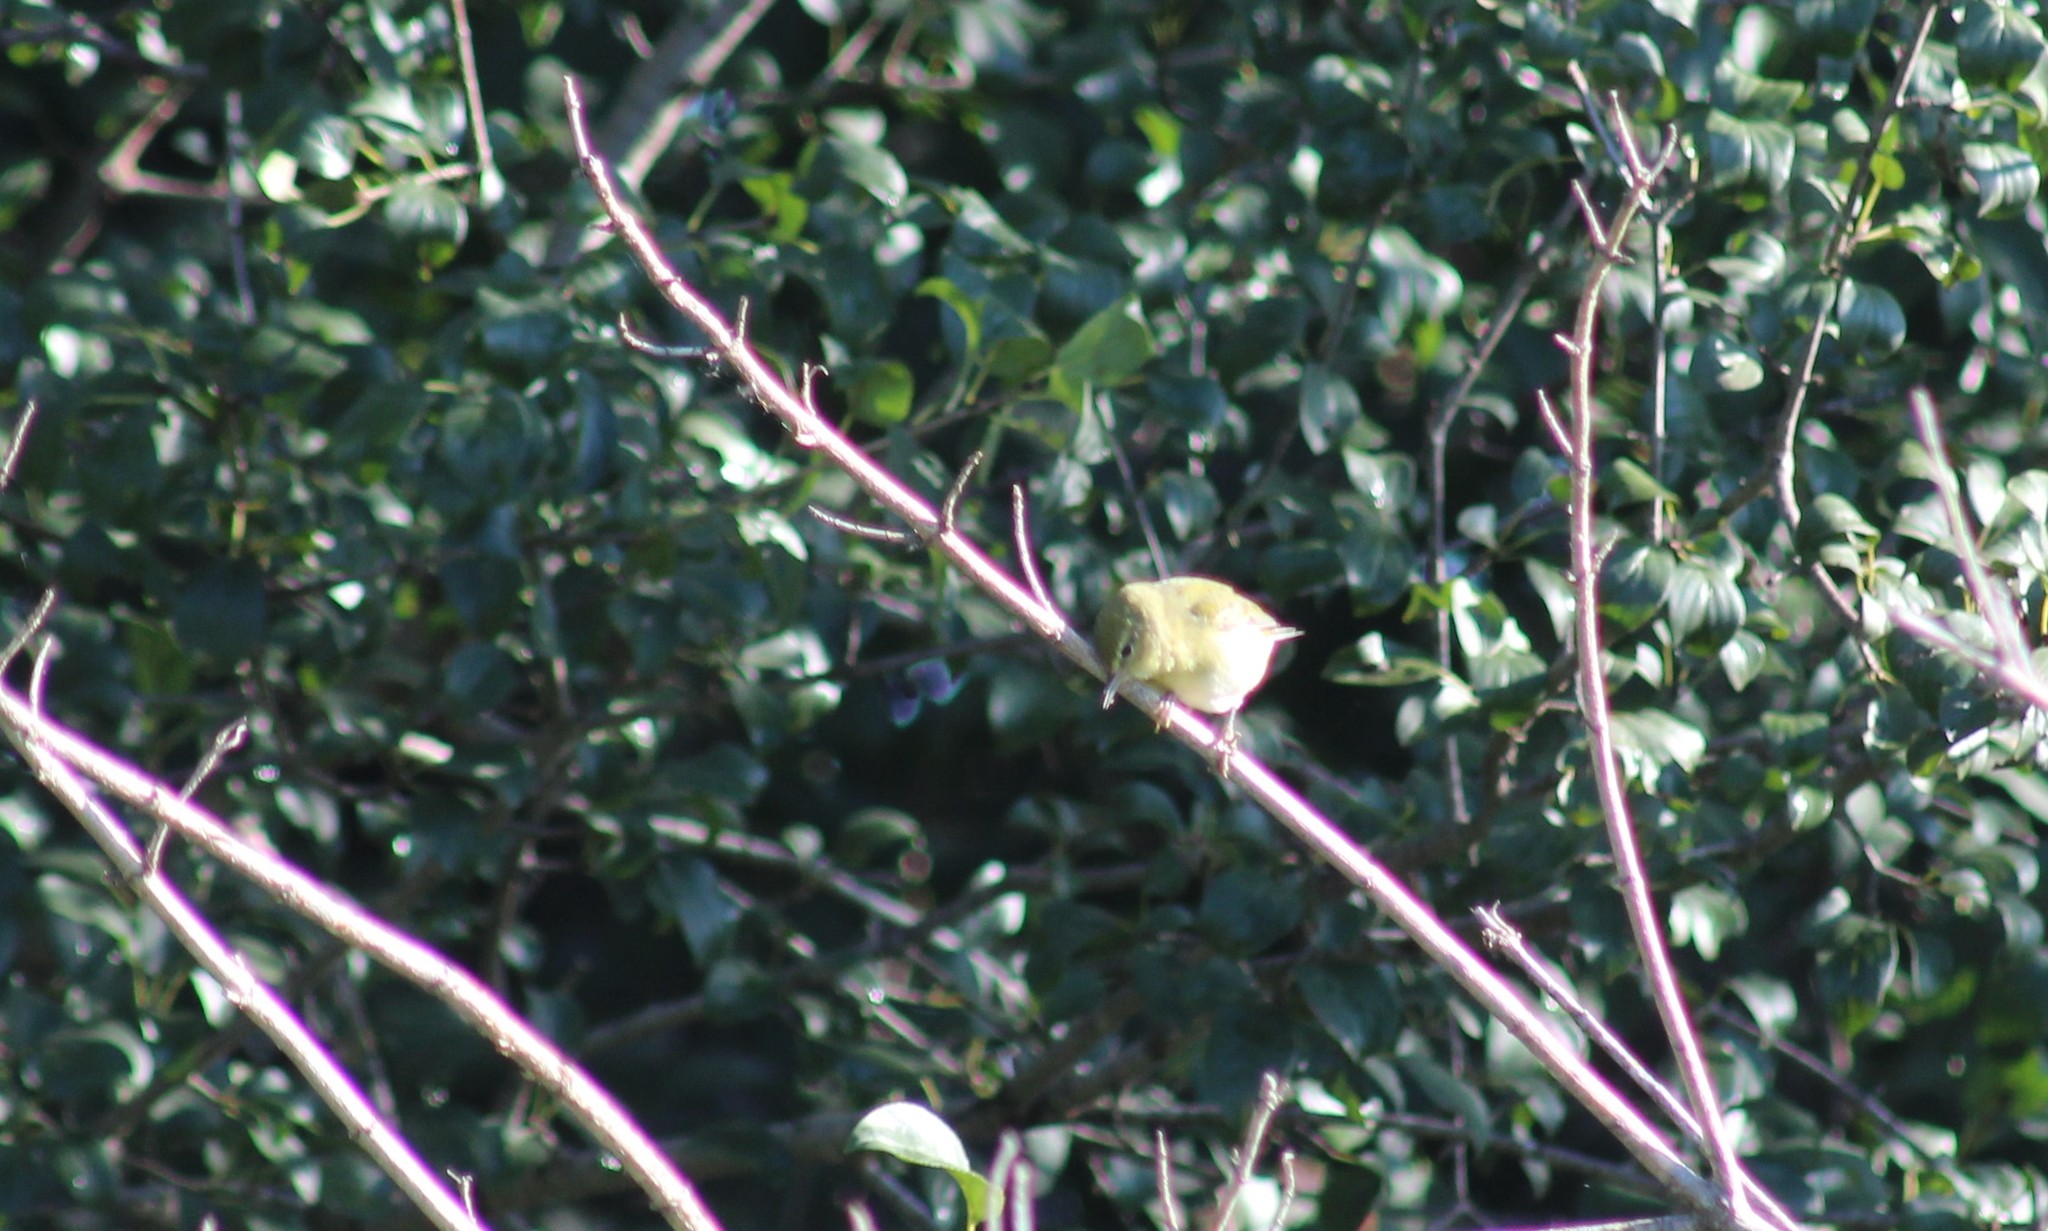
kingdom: Animalia
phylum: Chordata
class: Aves
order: Passeriformes
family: Parulidae
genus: Leiothlypis
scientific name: Leiothlypis peregrina
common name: Tennessee warbler
